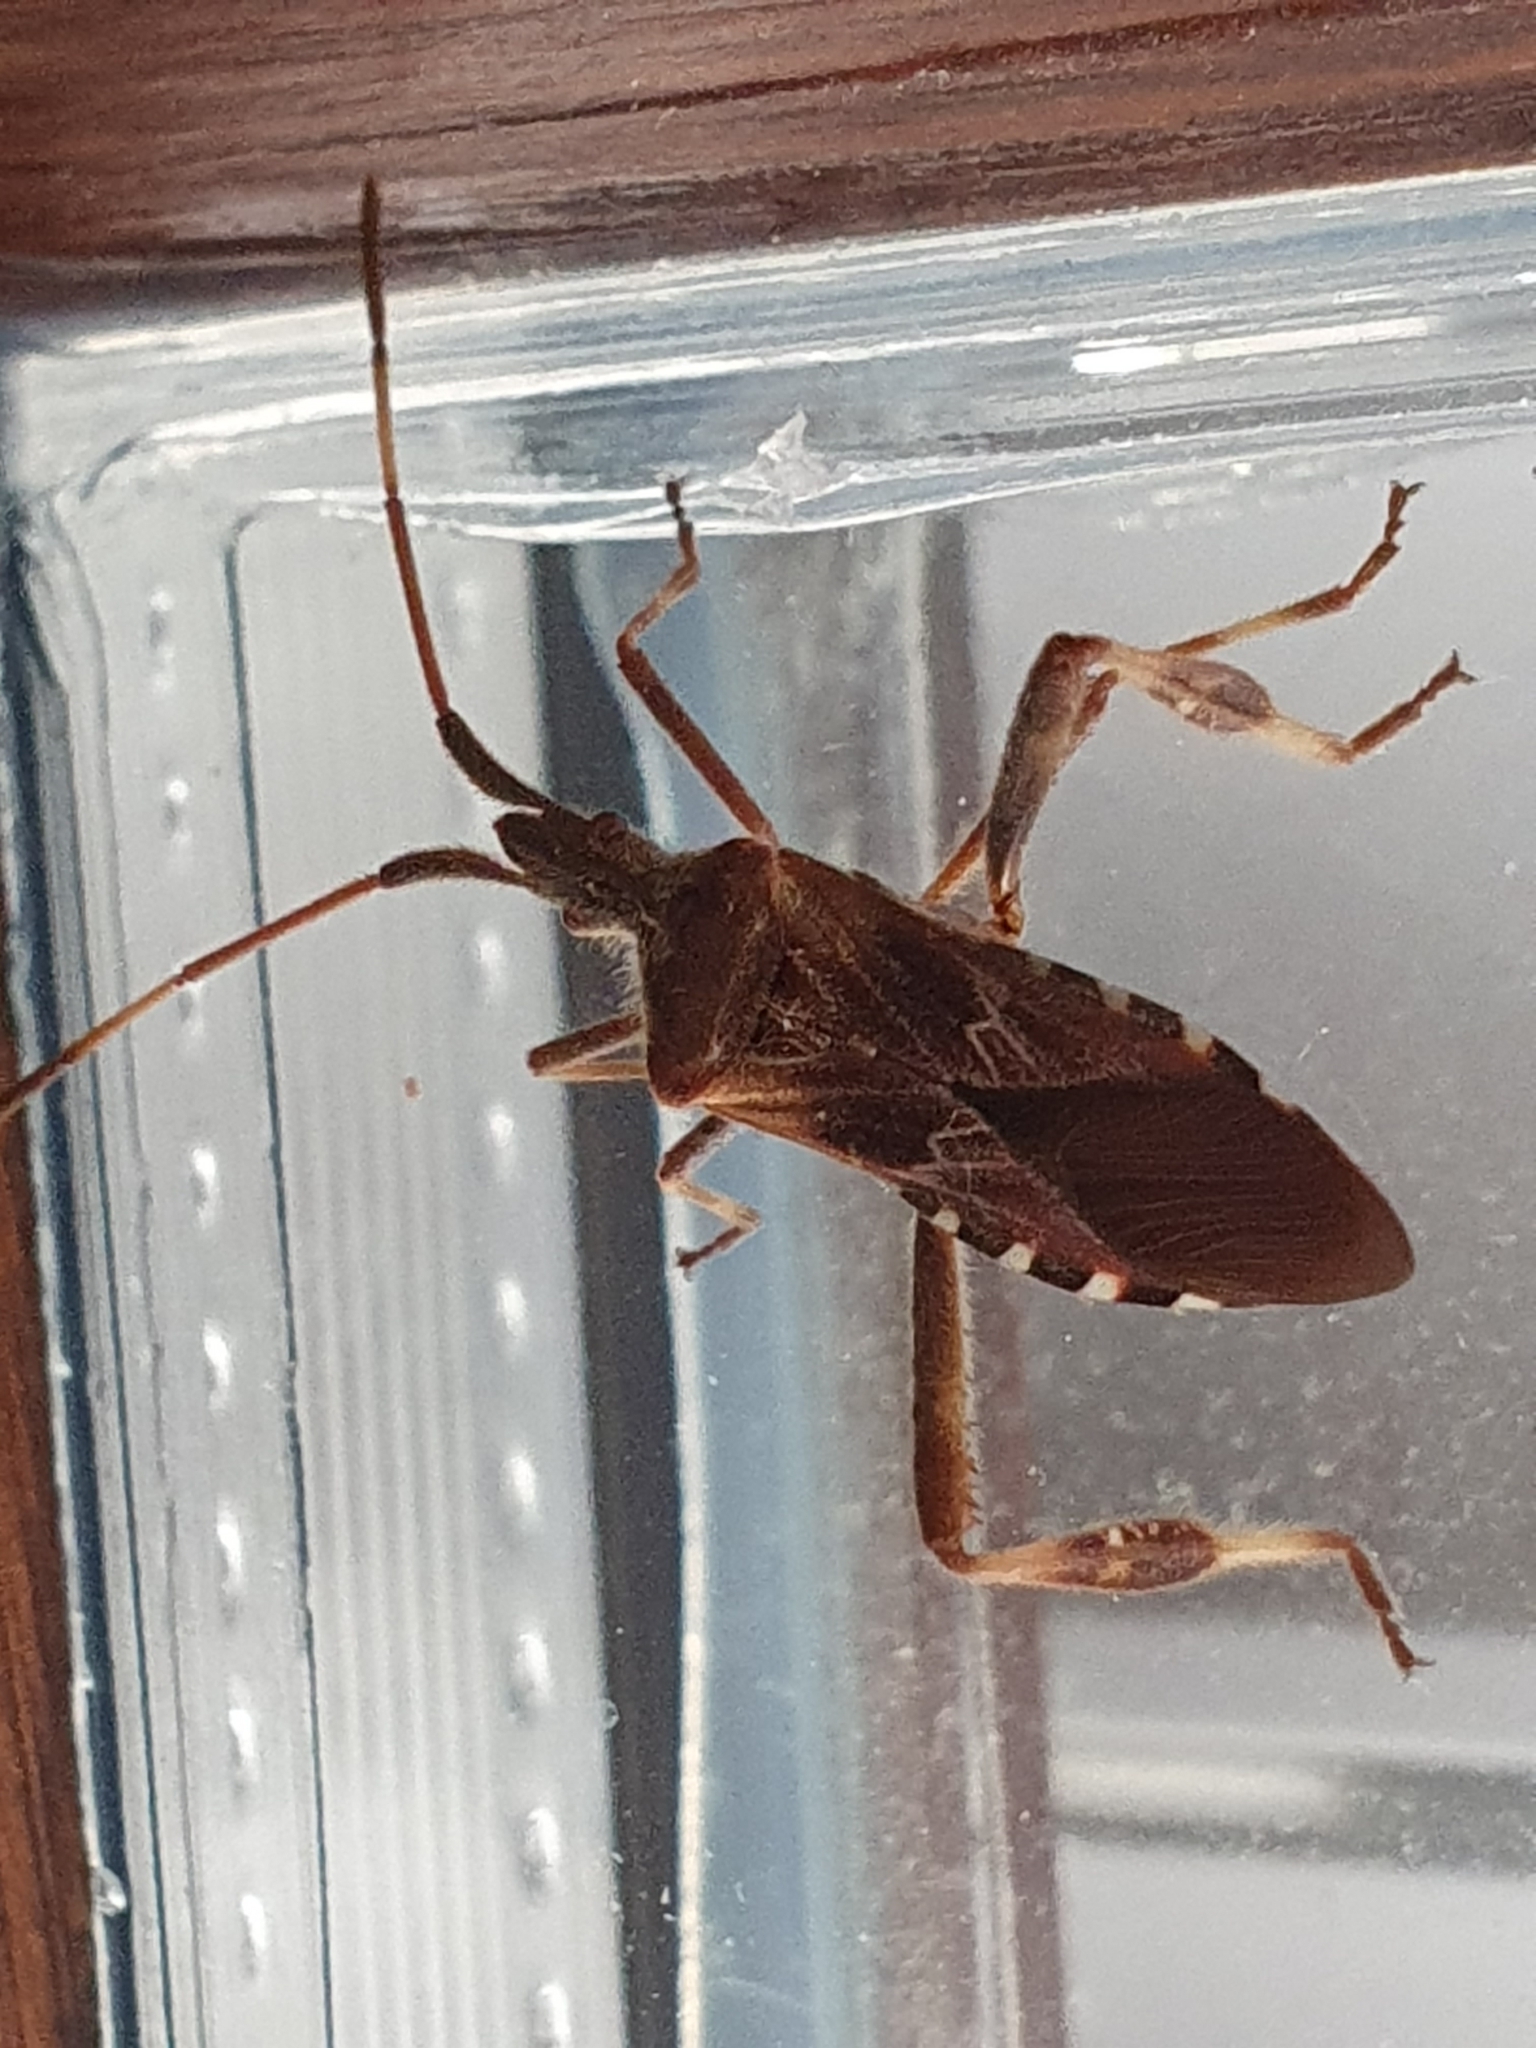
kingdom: Animalia
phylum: Arthropoda
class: Insecta
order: Hemiptera
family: Coreidae
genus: Leptoglossus
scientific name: Leptoglossus occidentalis
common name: Western conifer-seed bug
